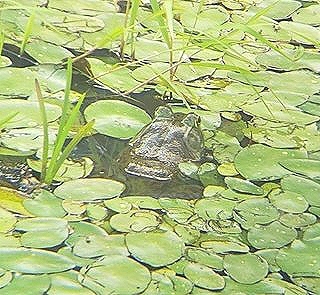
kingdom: Animalia
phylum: Chordata
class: Amphibia
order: Anura
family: Ranidae
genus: Lithobates
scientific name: Lithobates catesbeianus
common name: American bullfrog
